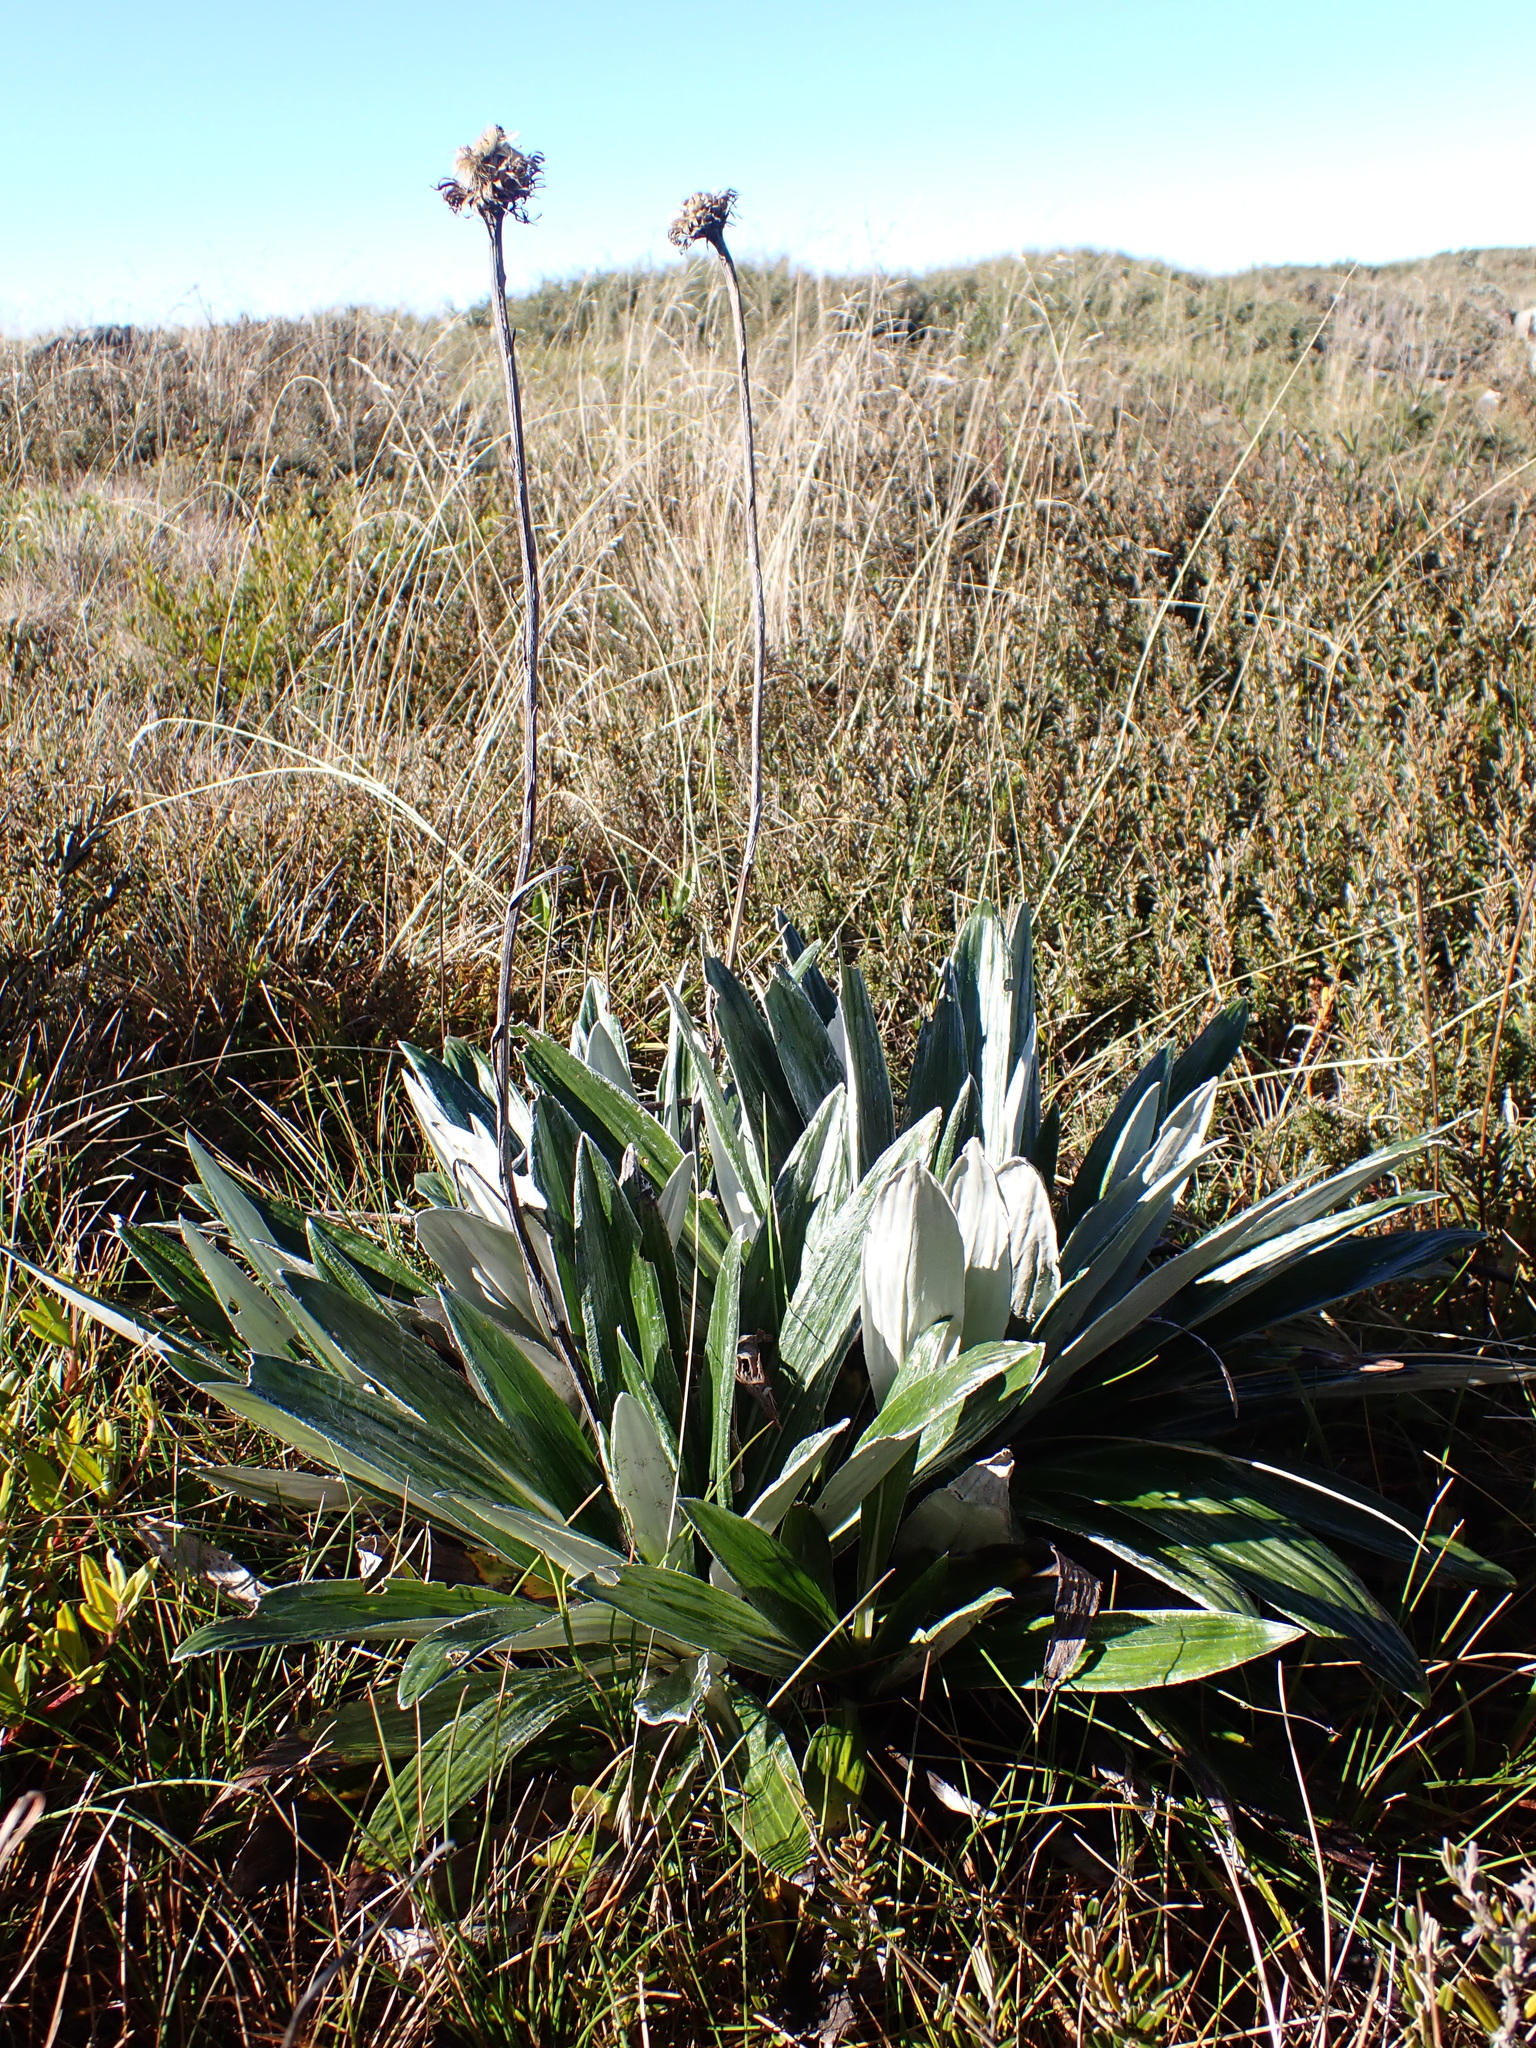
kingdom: Plantae
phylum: Tracheophyta
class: Magnoliopsida
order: Asterales
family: Asteraceae
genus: Celmisia
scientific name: Celmisia latifolia
